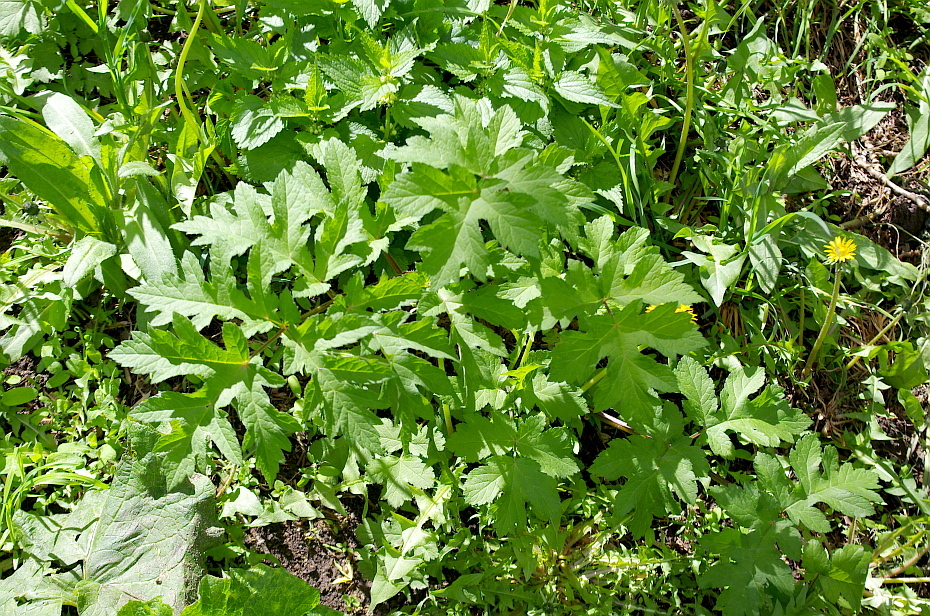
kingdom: Plantae
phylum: Tracheophyta
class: Magnoliopsida
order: Apiales
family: Apiaceae
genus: Heracleum
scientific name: Heracleum sphondylium
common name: Hogweed
